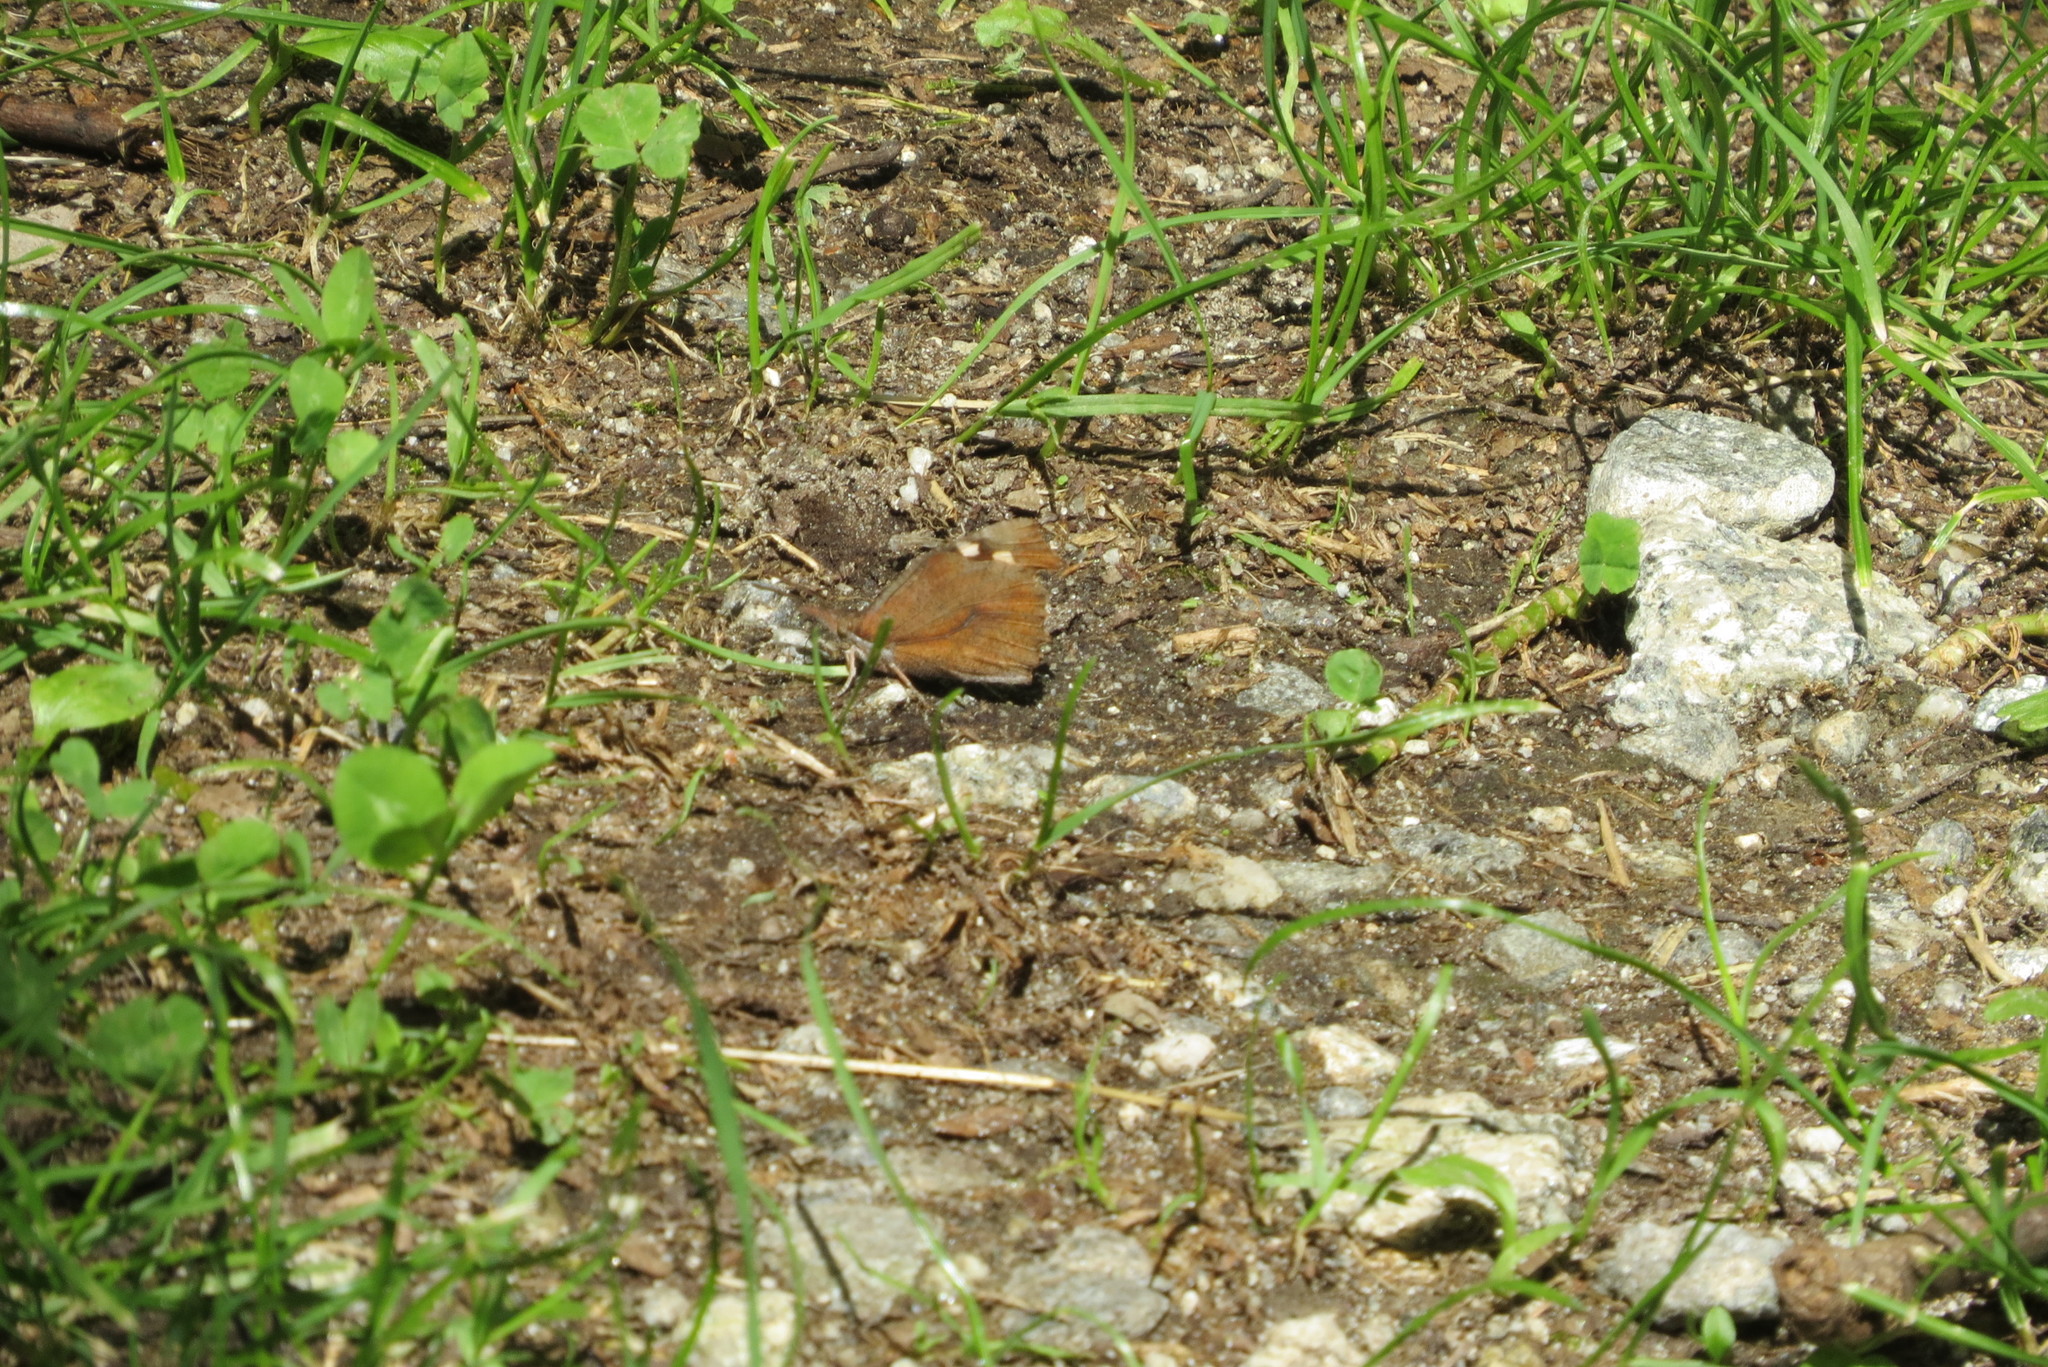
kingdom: Animalia
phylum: Arthropoda
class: Insecta
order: Lepidoptera
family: Nymphalidae
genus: Libythea
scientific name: Libythea celtis
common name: Nettle-tree butterfly
